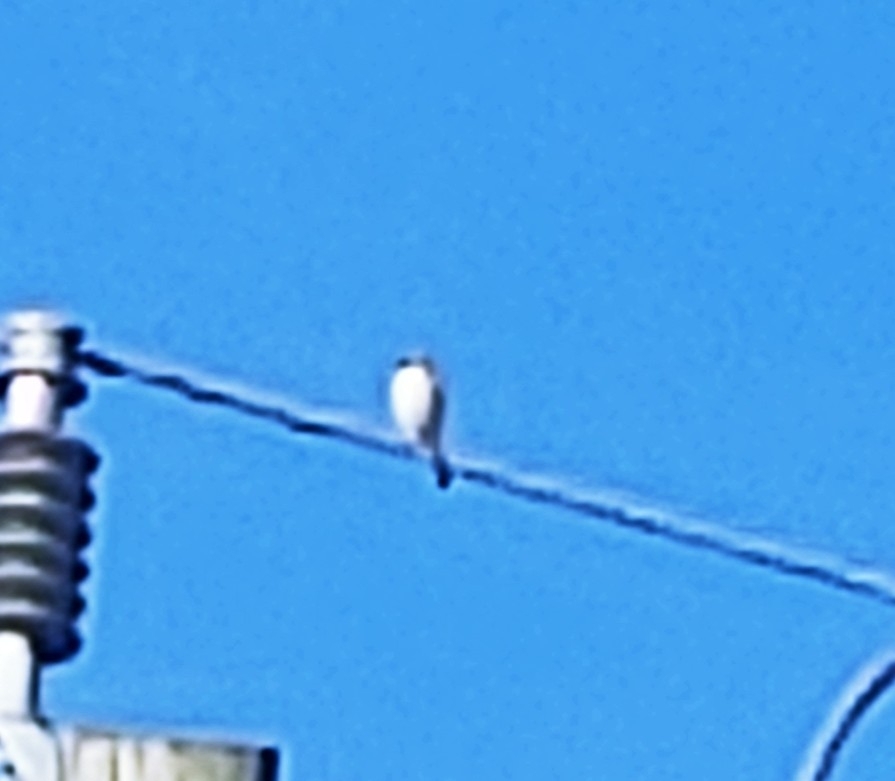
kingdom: Animalia
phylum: Chordata
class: Aves
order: Passeriformes
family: Laniidae
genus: Lanius
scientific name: Lanius ludovicianus
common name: Loggerhead shrike
